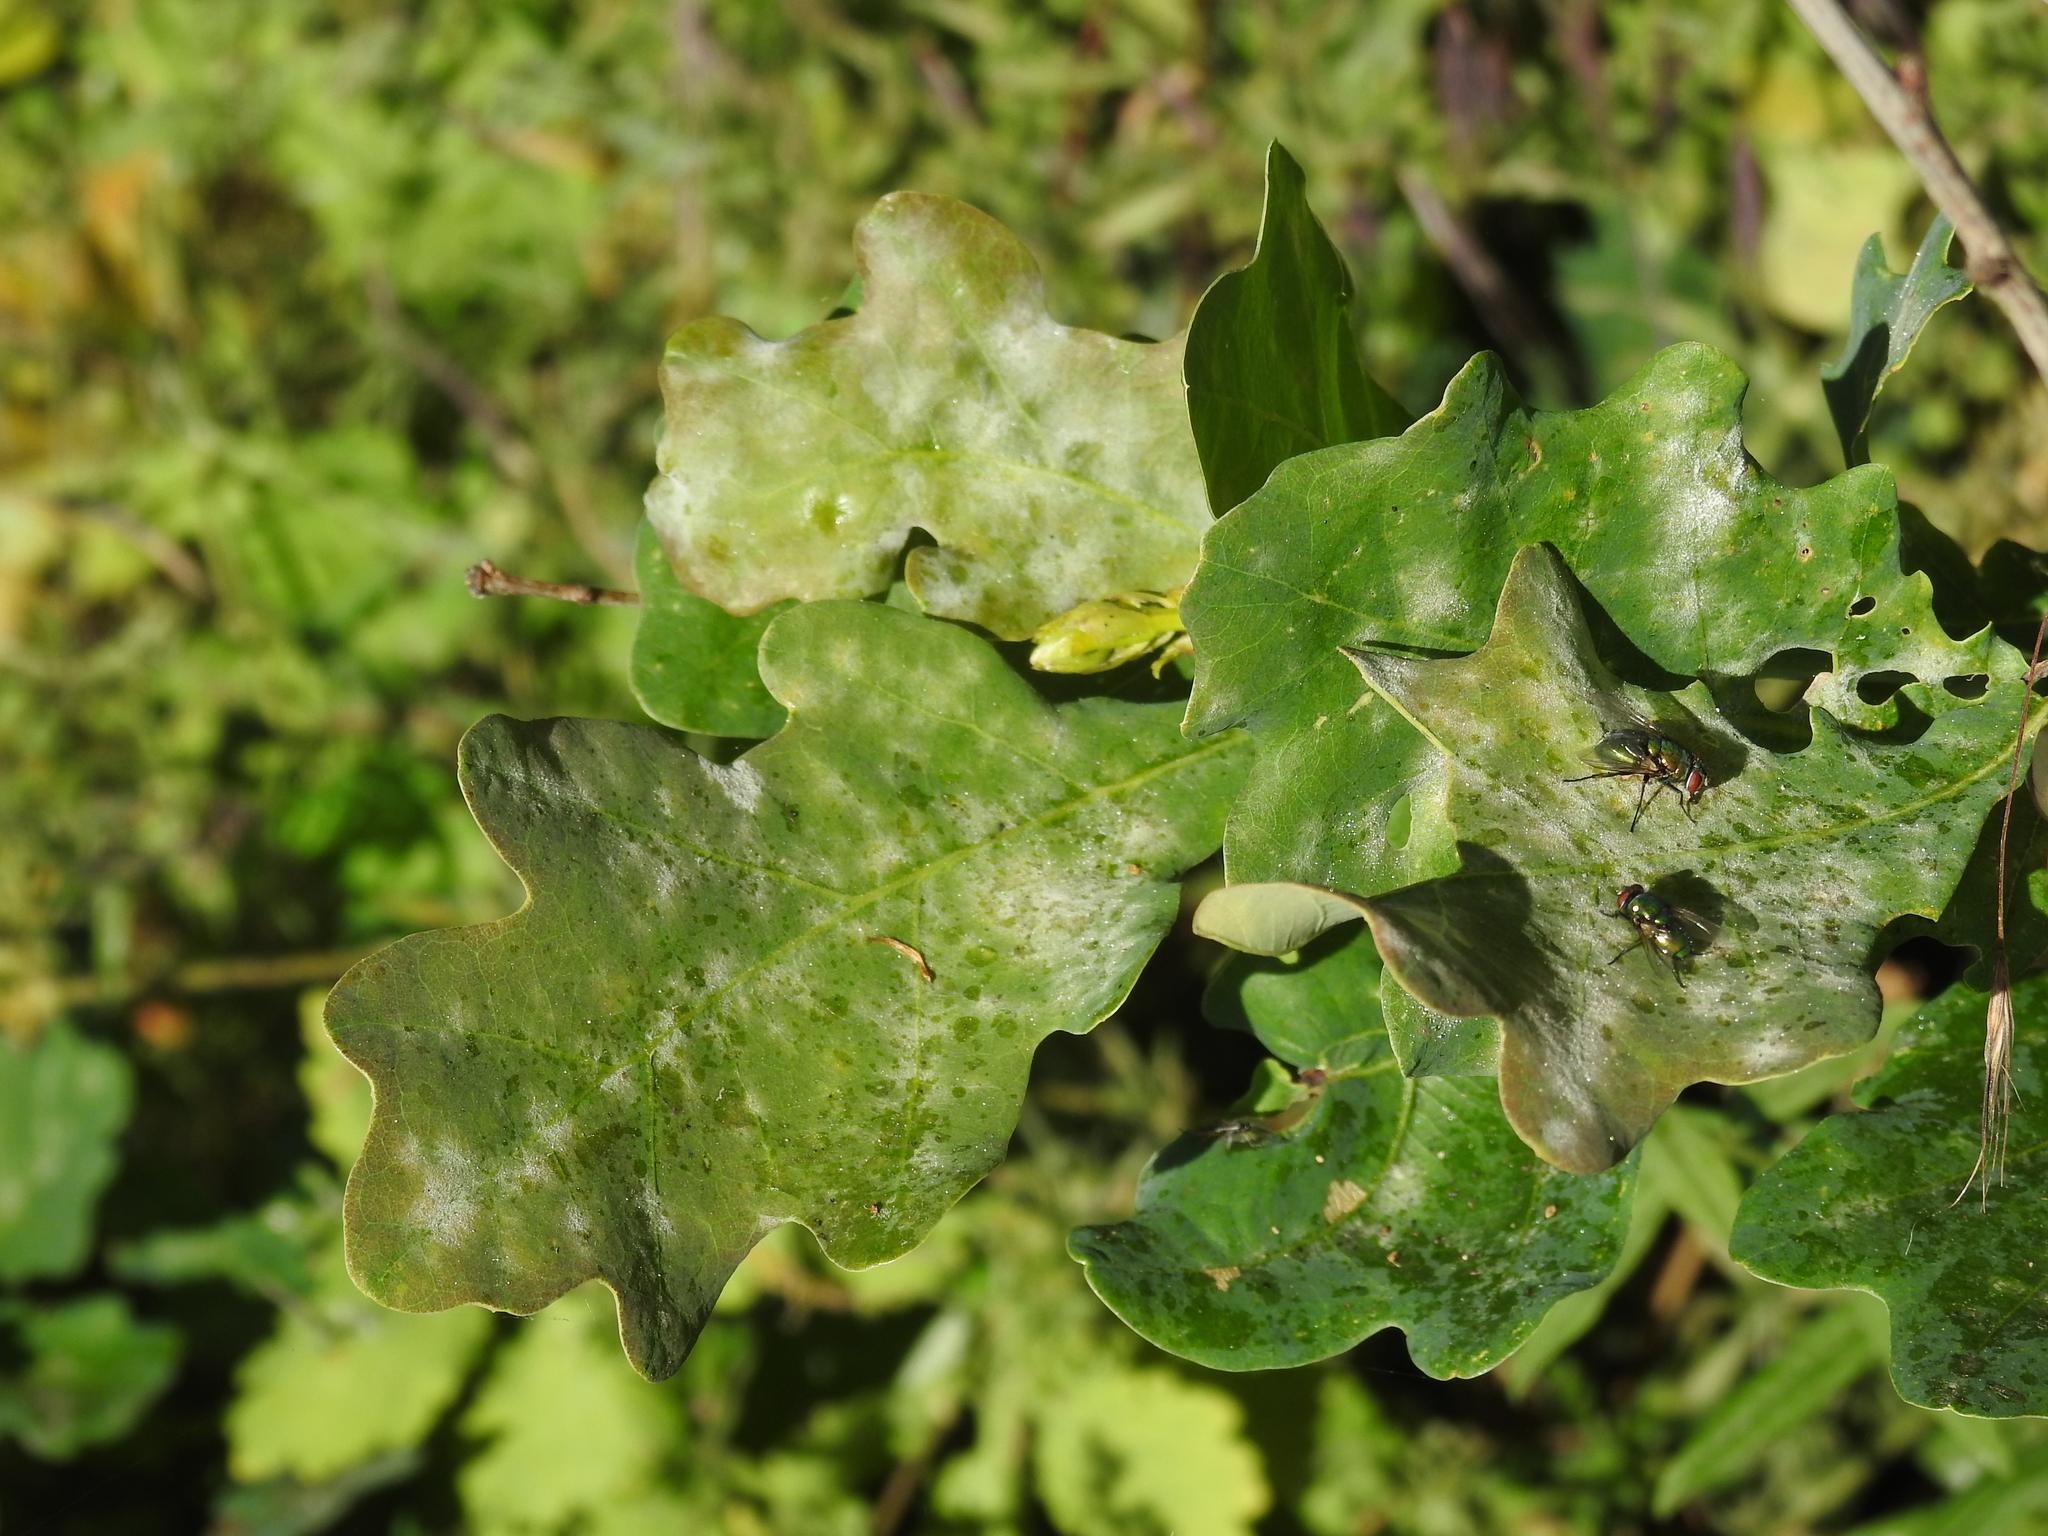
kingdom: Fungi
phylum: Ascomycota
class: Leotiomycetes
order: Helotiales
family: Erysiphaceae
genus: Erysiphe
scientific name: Erysiphe
